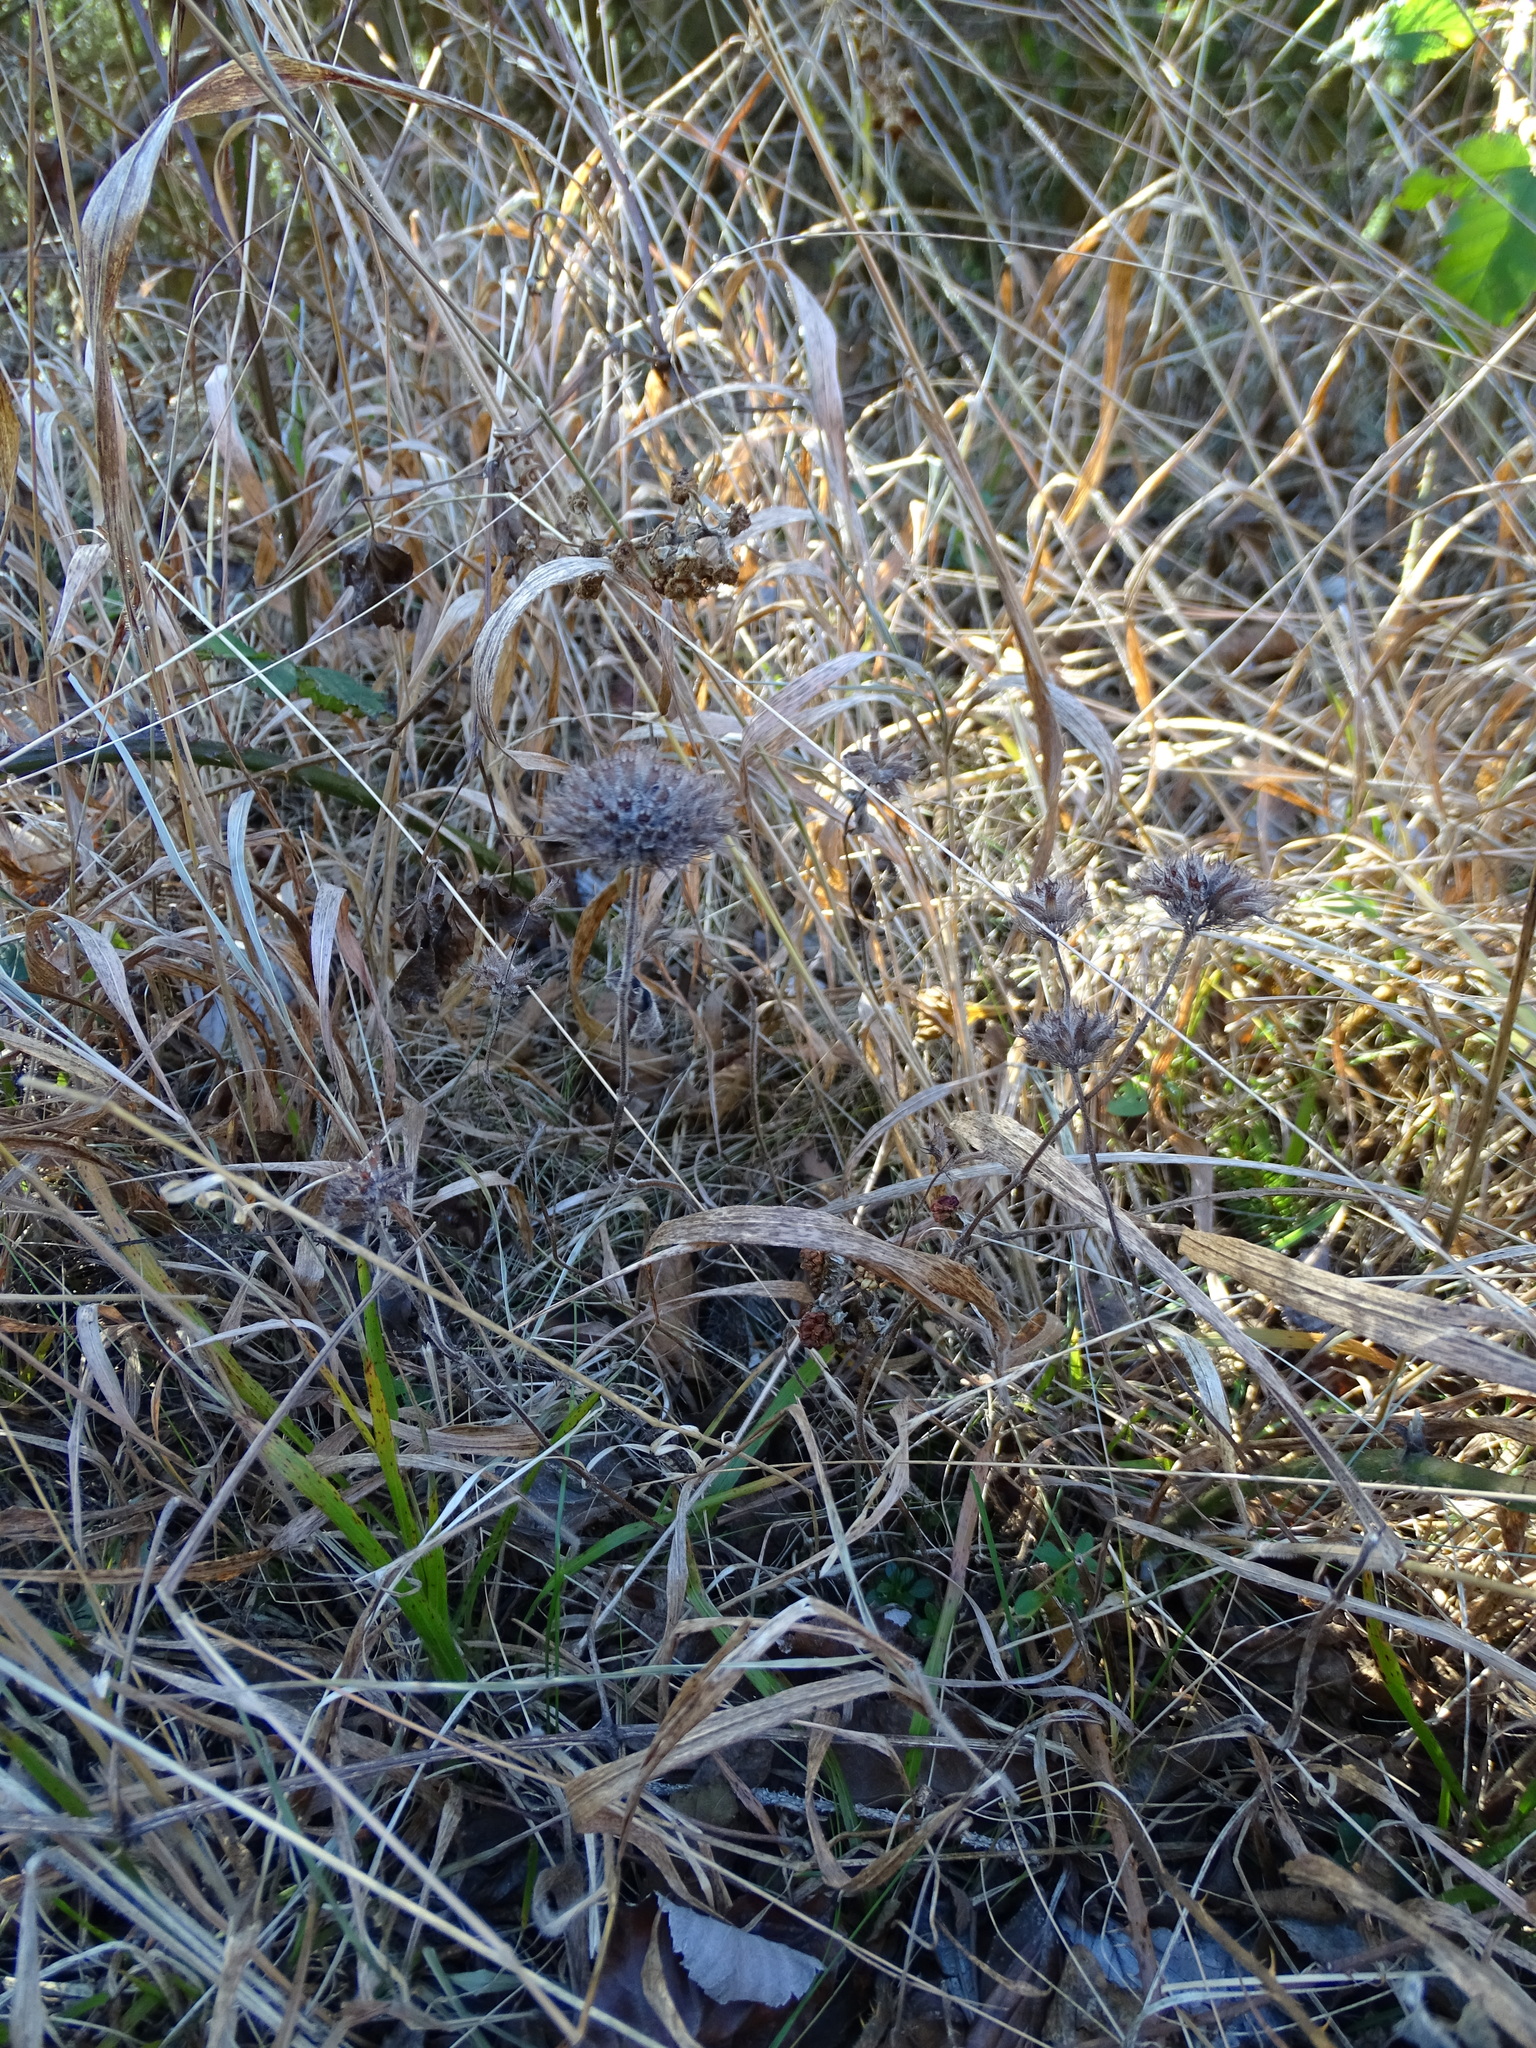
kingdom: Plantae
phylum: Tracheophyta
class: Magnoliopsida
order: Lamiales
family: Lamiaceae
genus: Clinopodium
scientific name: Clinopodium vulgare
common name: Wild basil
